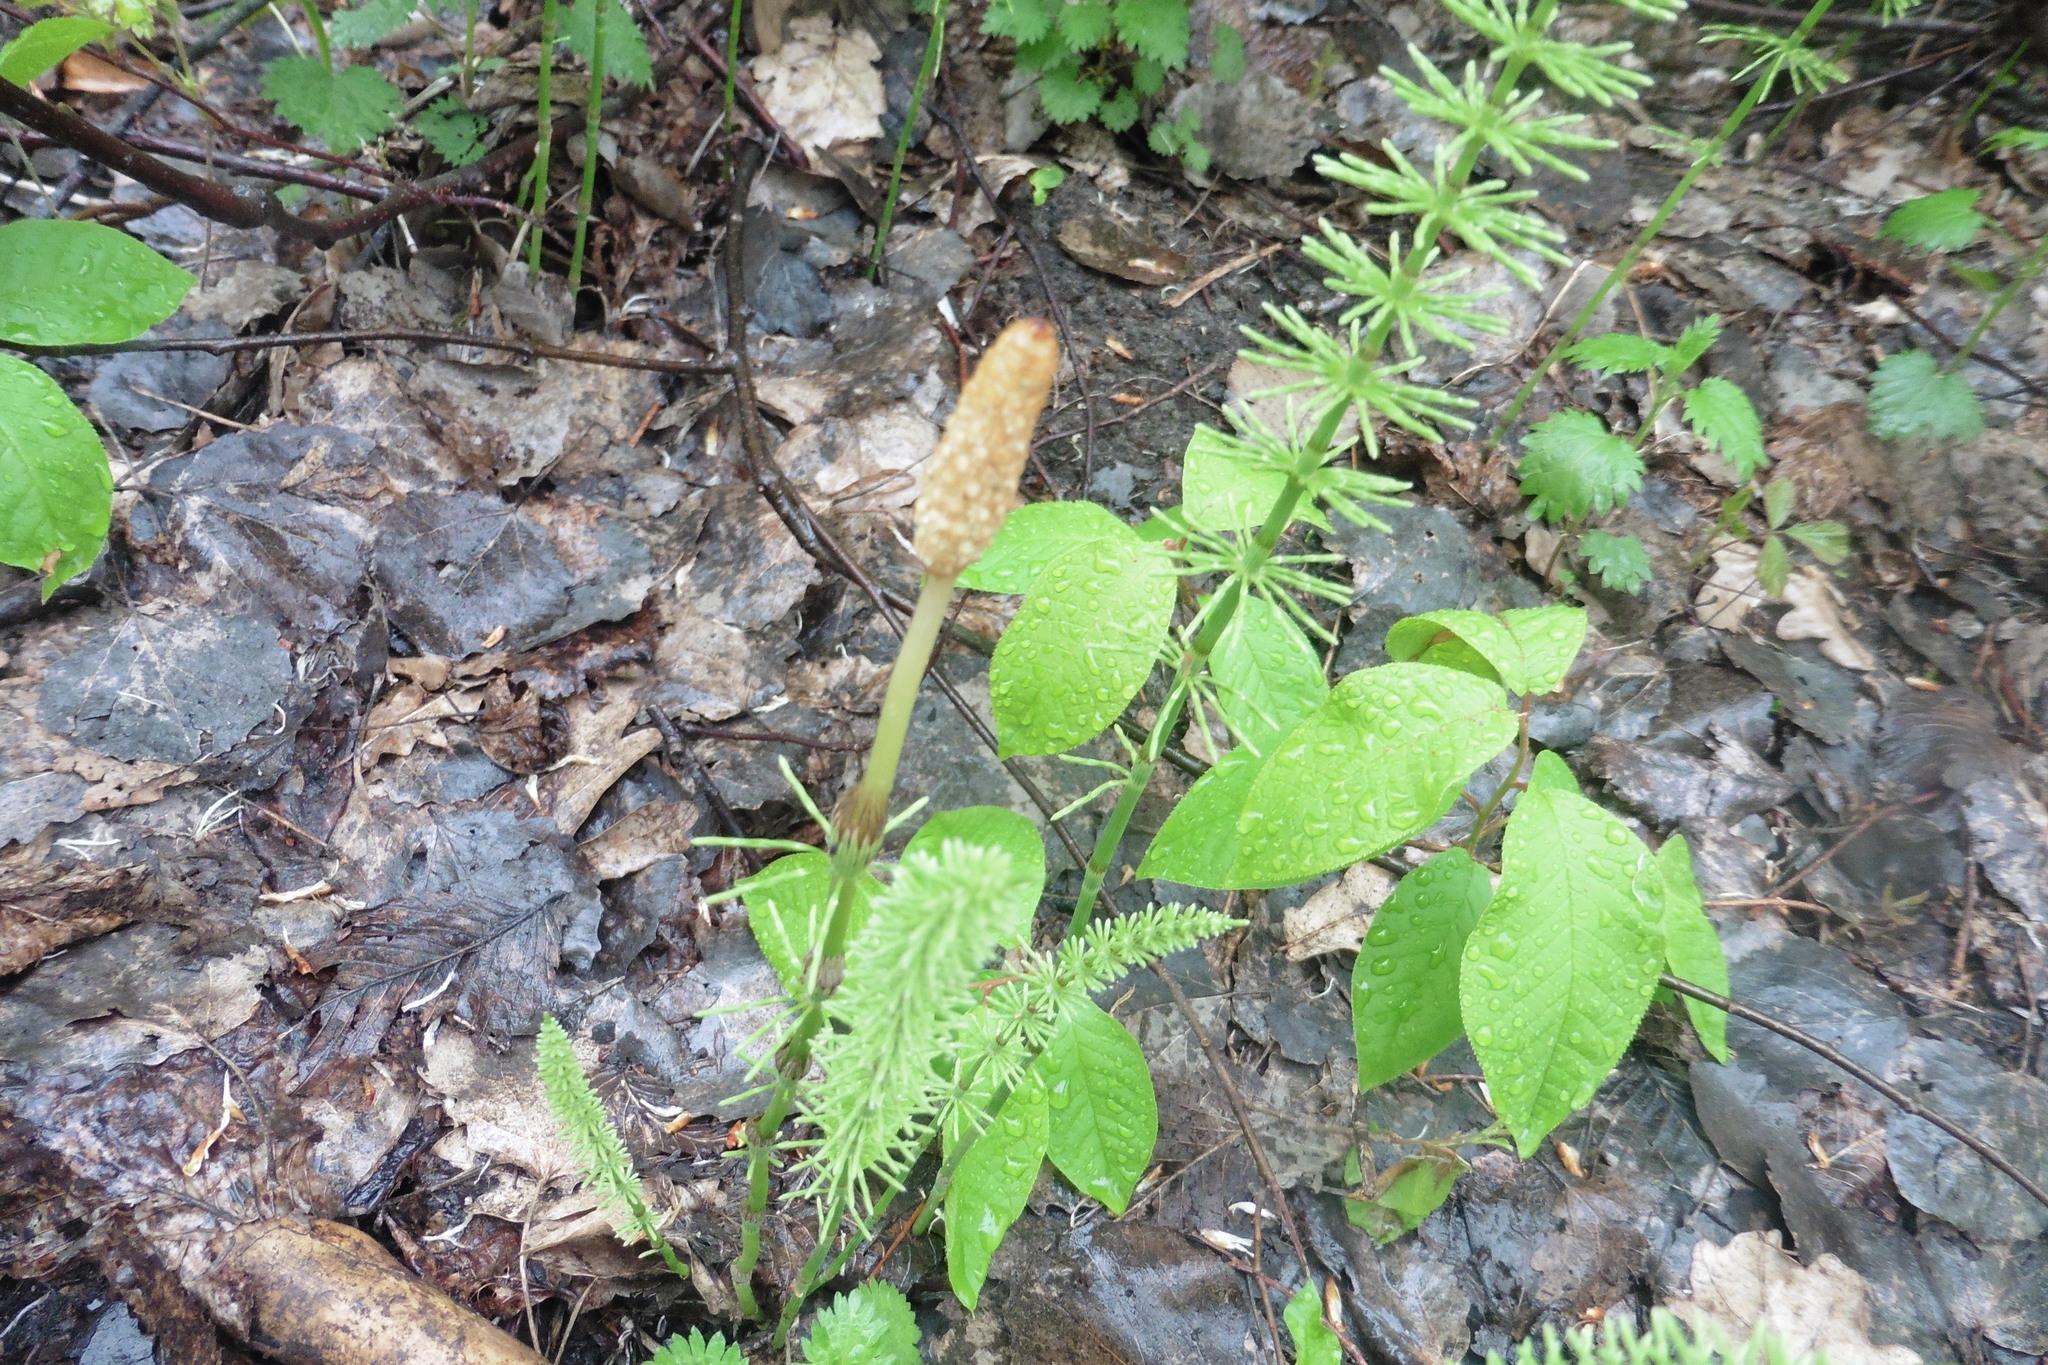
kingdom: Plantae
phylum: Tracheophyta
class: Polypodiopsida
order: Equisetales
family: Equisetaceae
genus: Equisetum
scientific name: Equisetum pratense
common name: Meadow horsetail
